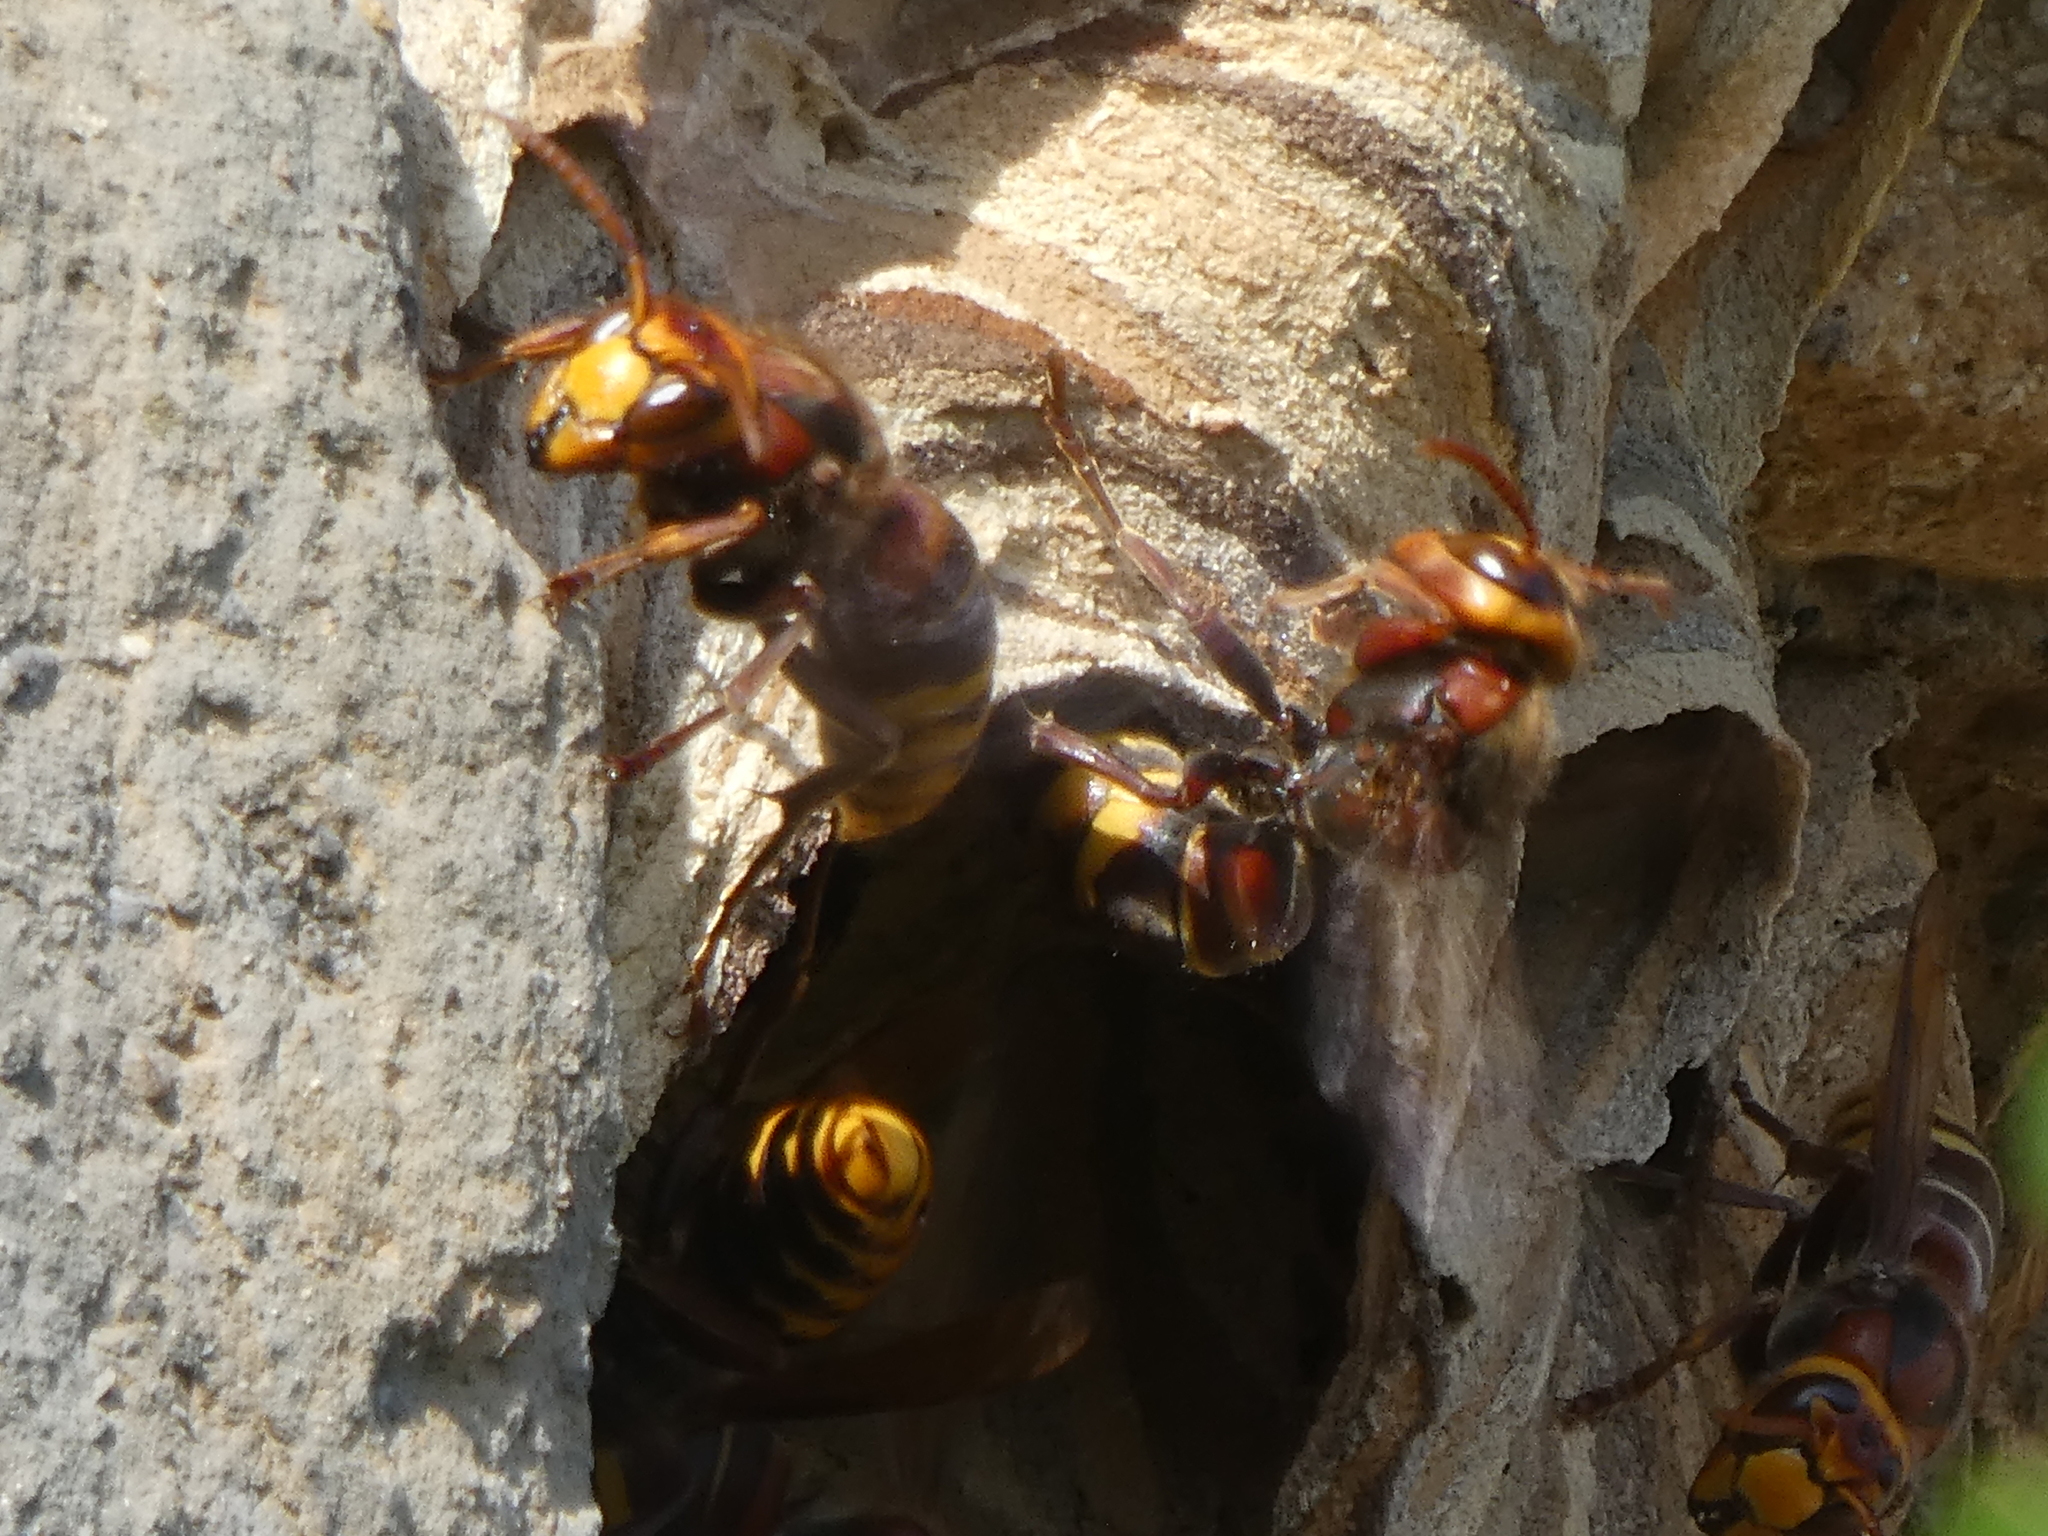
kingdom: Animalia
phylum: Arthropoda
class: Insecta
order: Hymenoptera
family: Vespidae
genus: Vespa
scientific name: Vespa crabro
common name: Hornet
